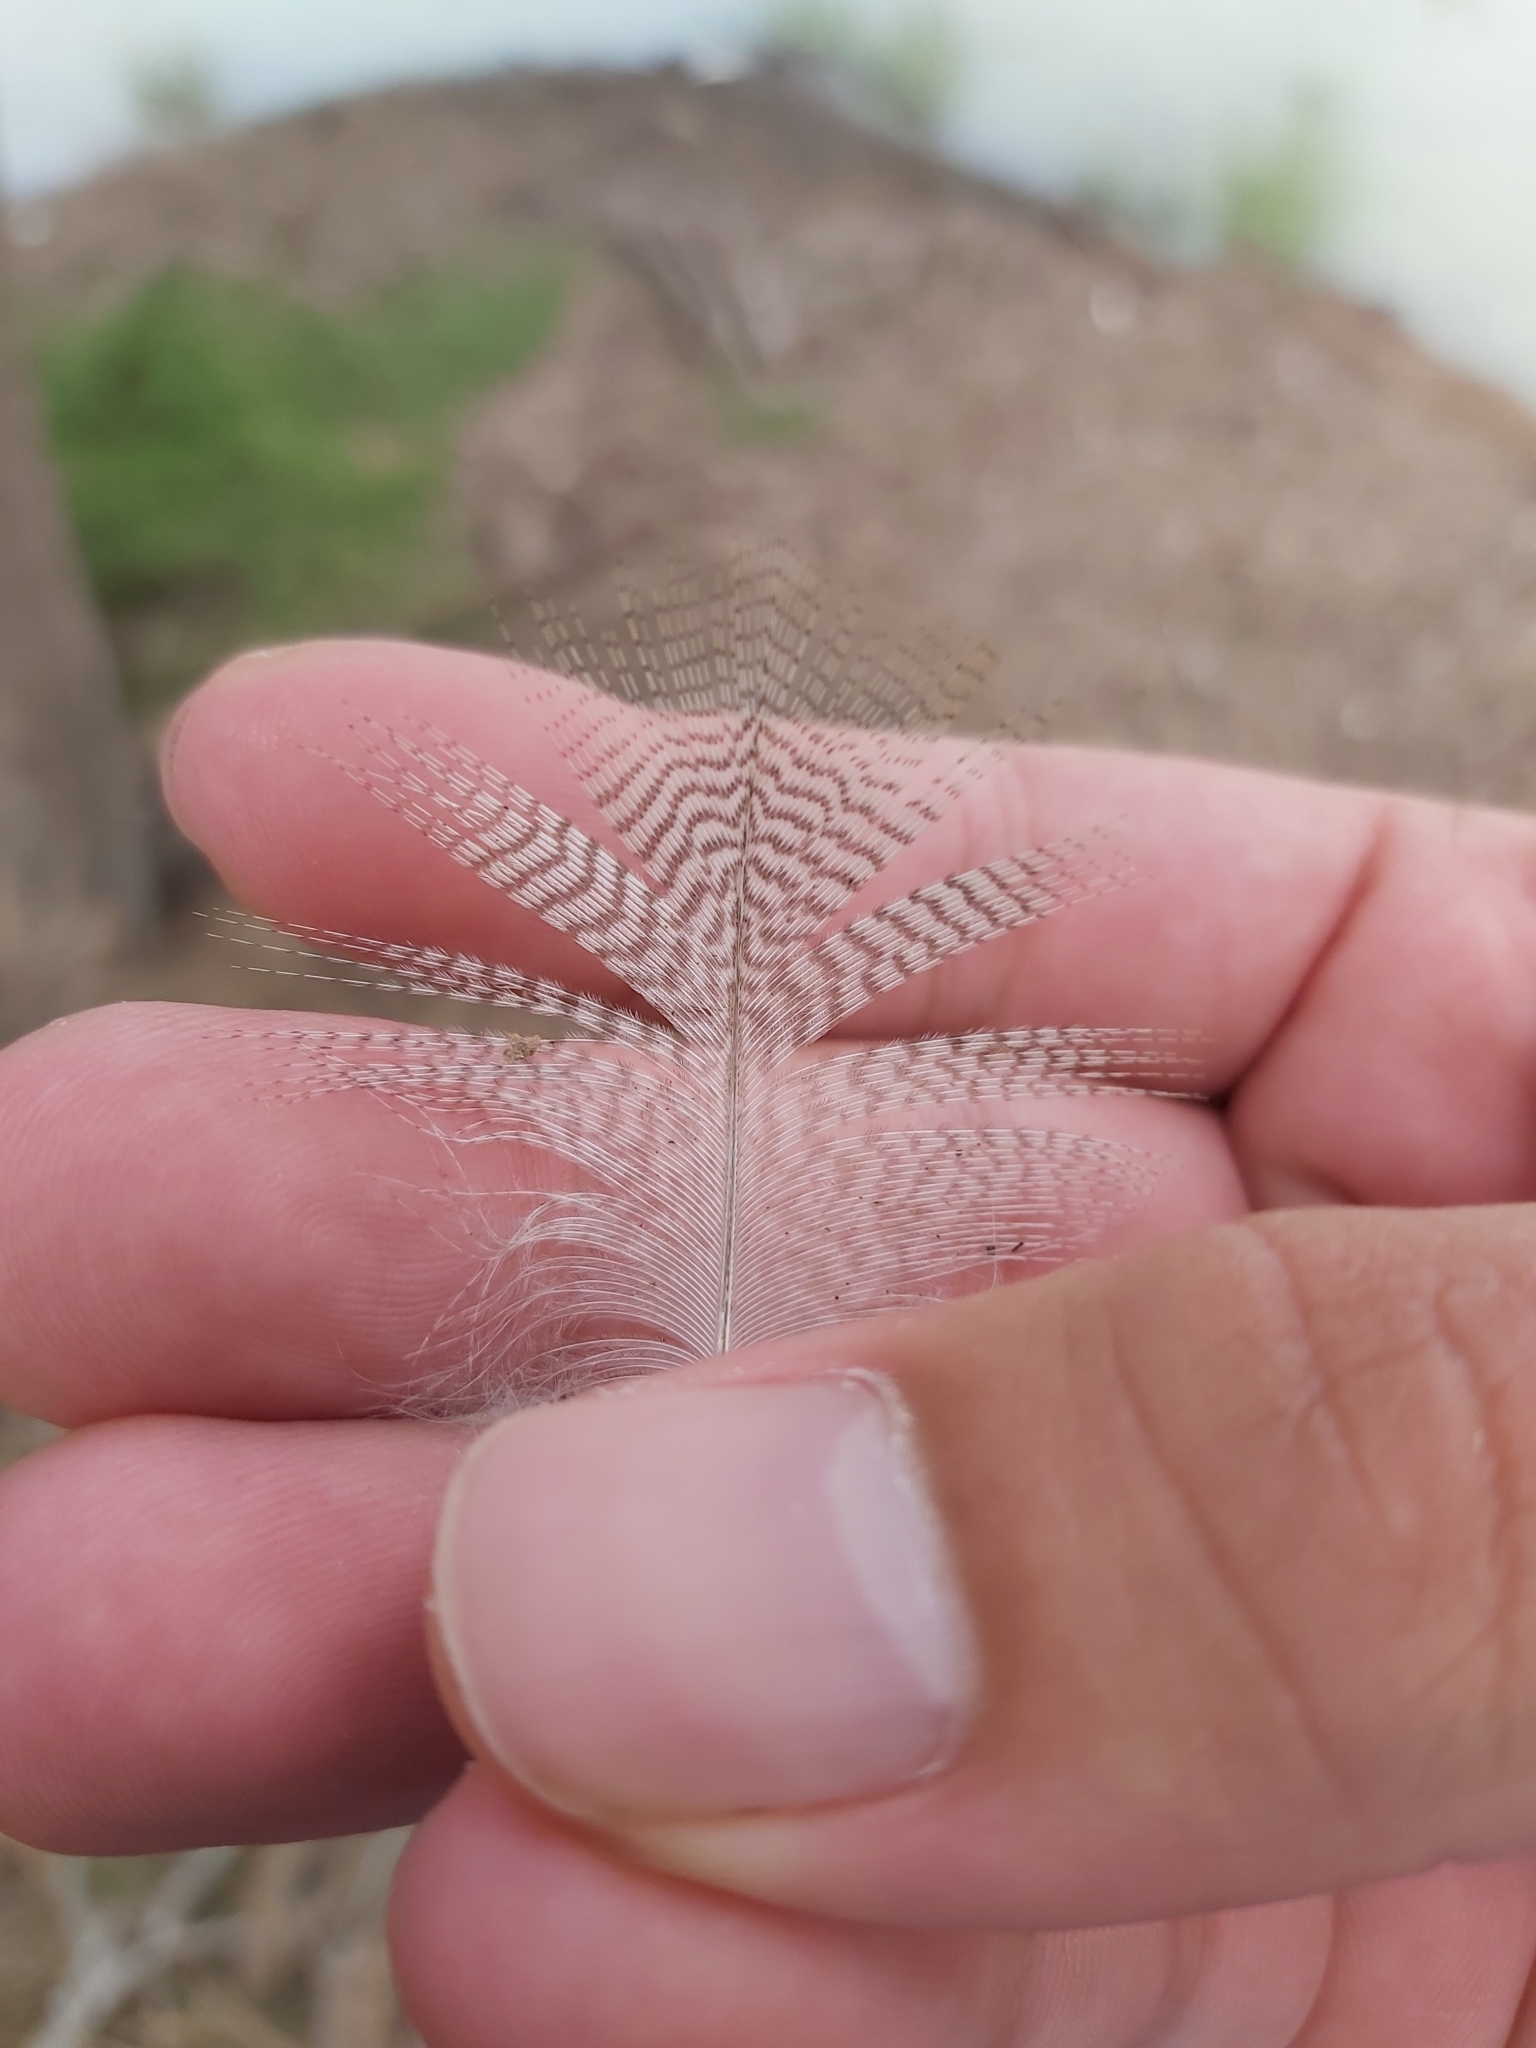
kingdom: Animalia
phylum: Chordata
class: Aves
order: Anseriformes
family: Anatidae
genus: Chenonetta
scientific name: Chenonetta jubata
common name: Maned duck
